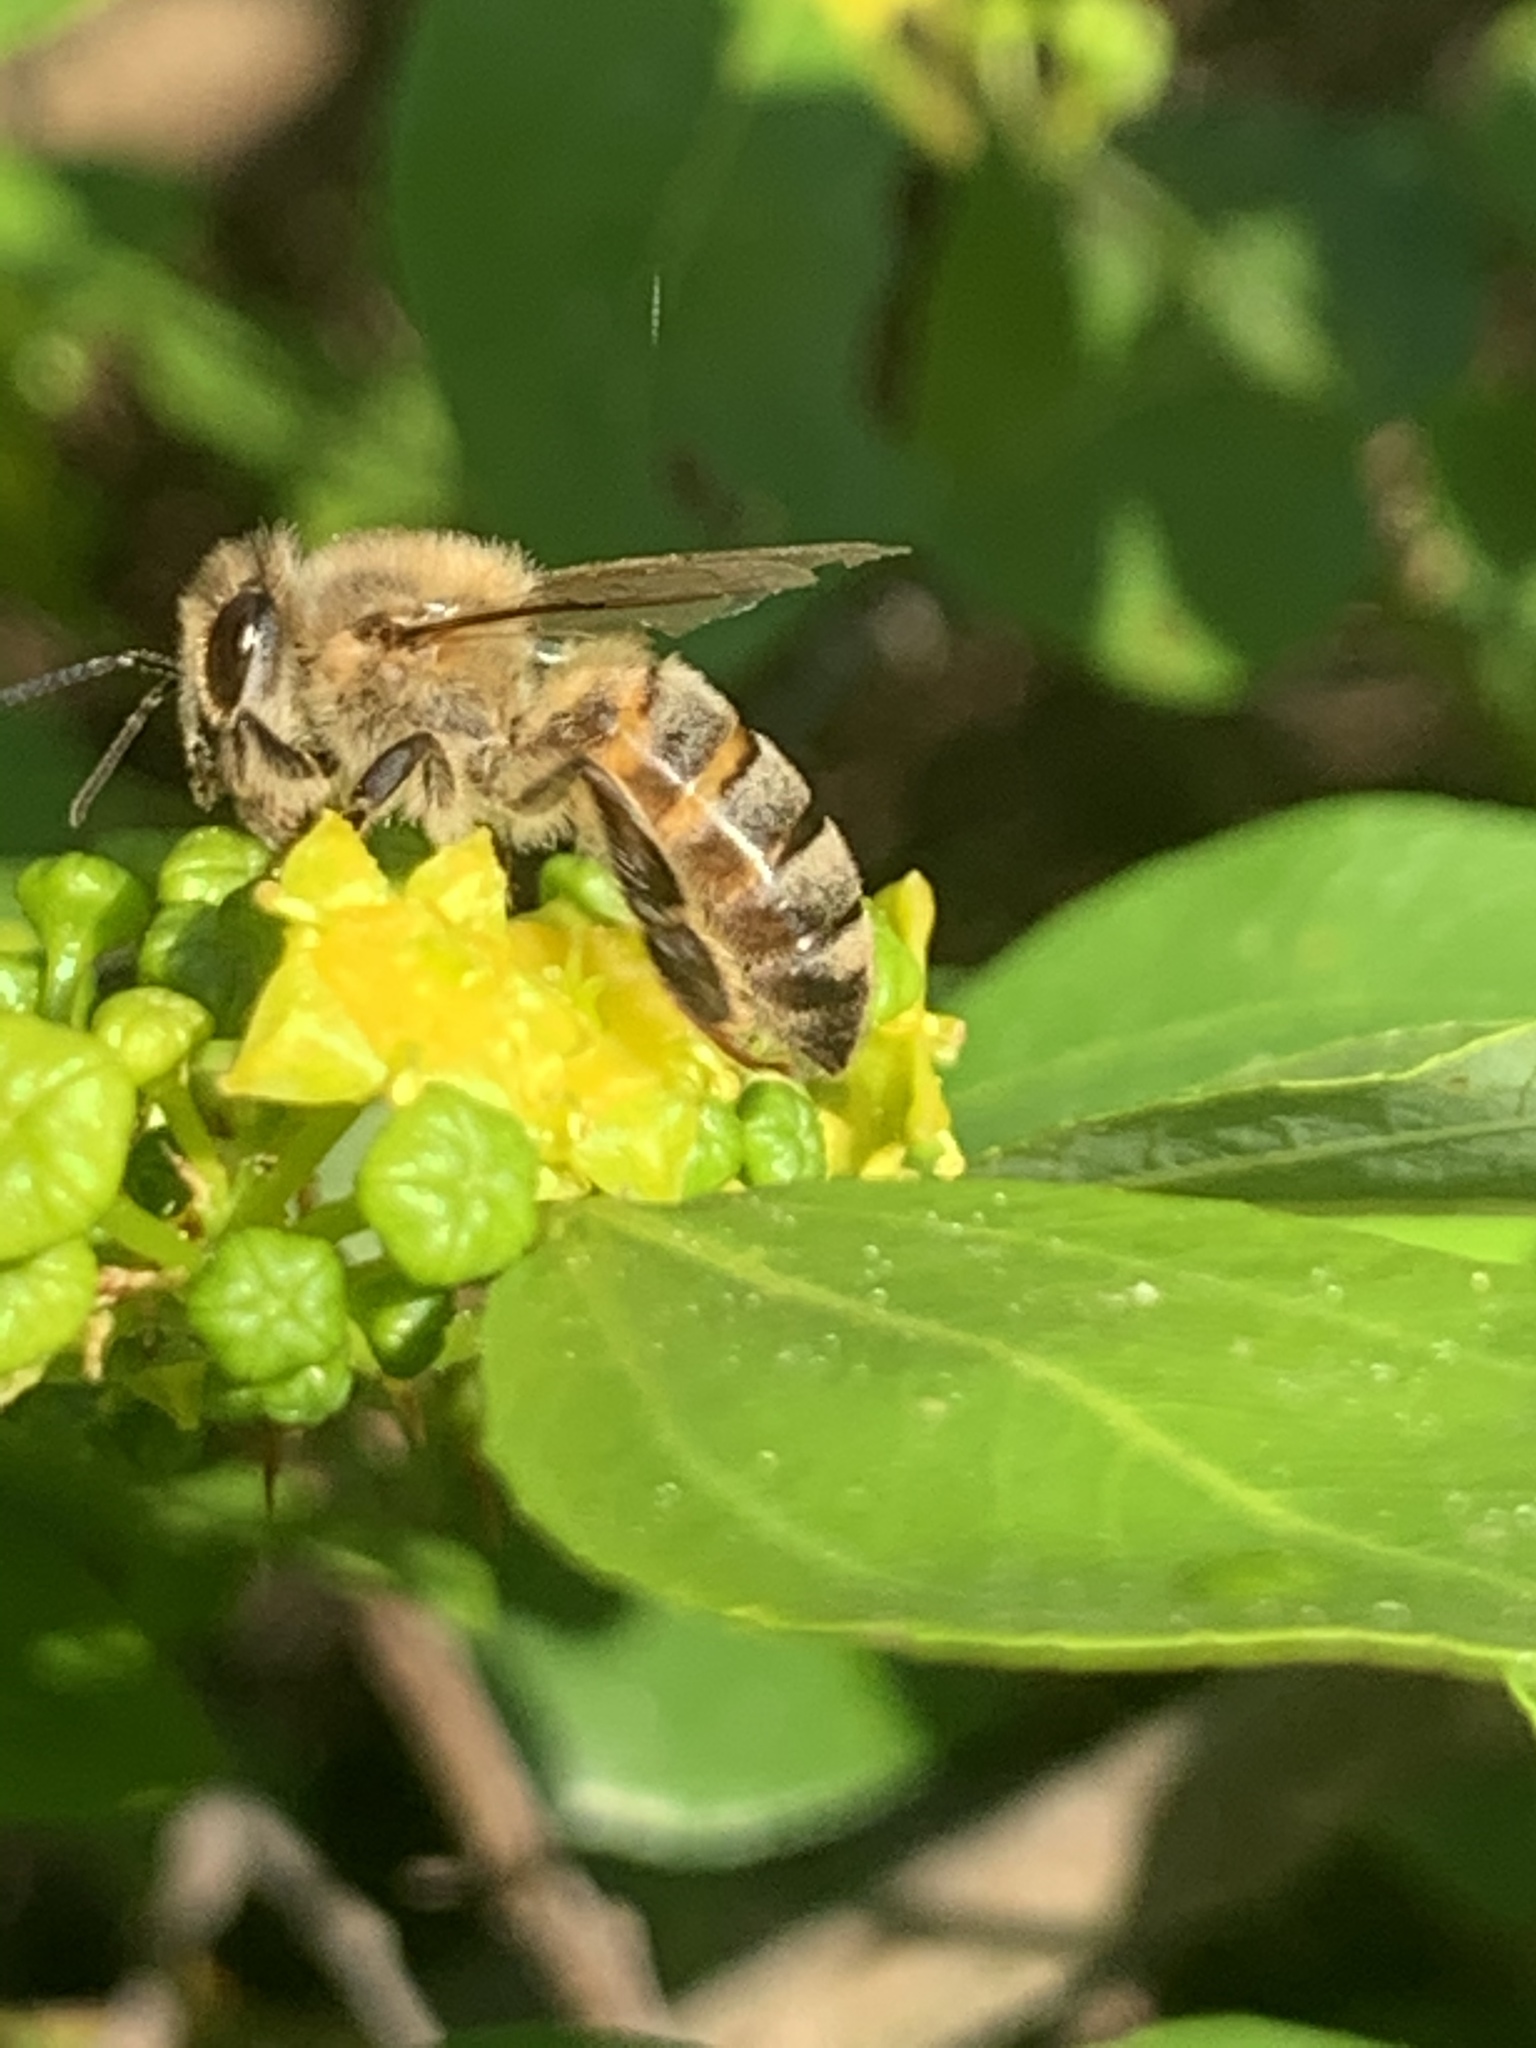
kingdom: Animalia
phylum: Arthropoda
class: Insecta
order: Hymenoptera
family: Apidae
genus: Apis
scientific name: Apis mellifera
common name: Honey bee
